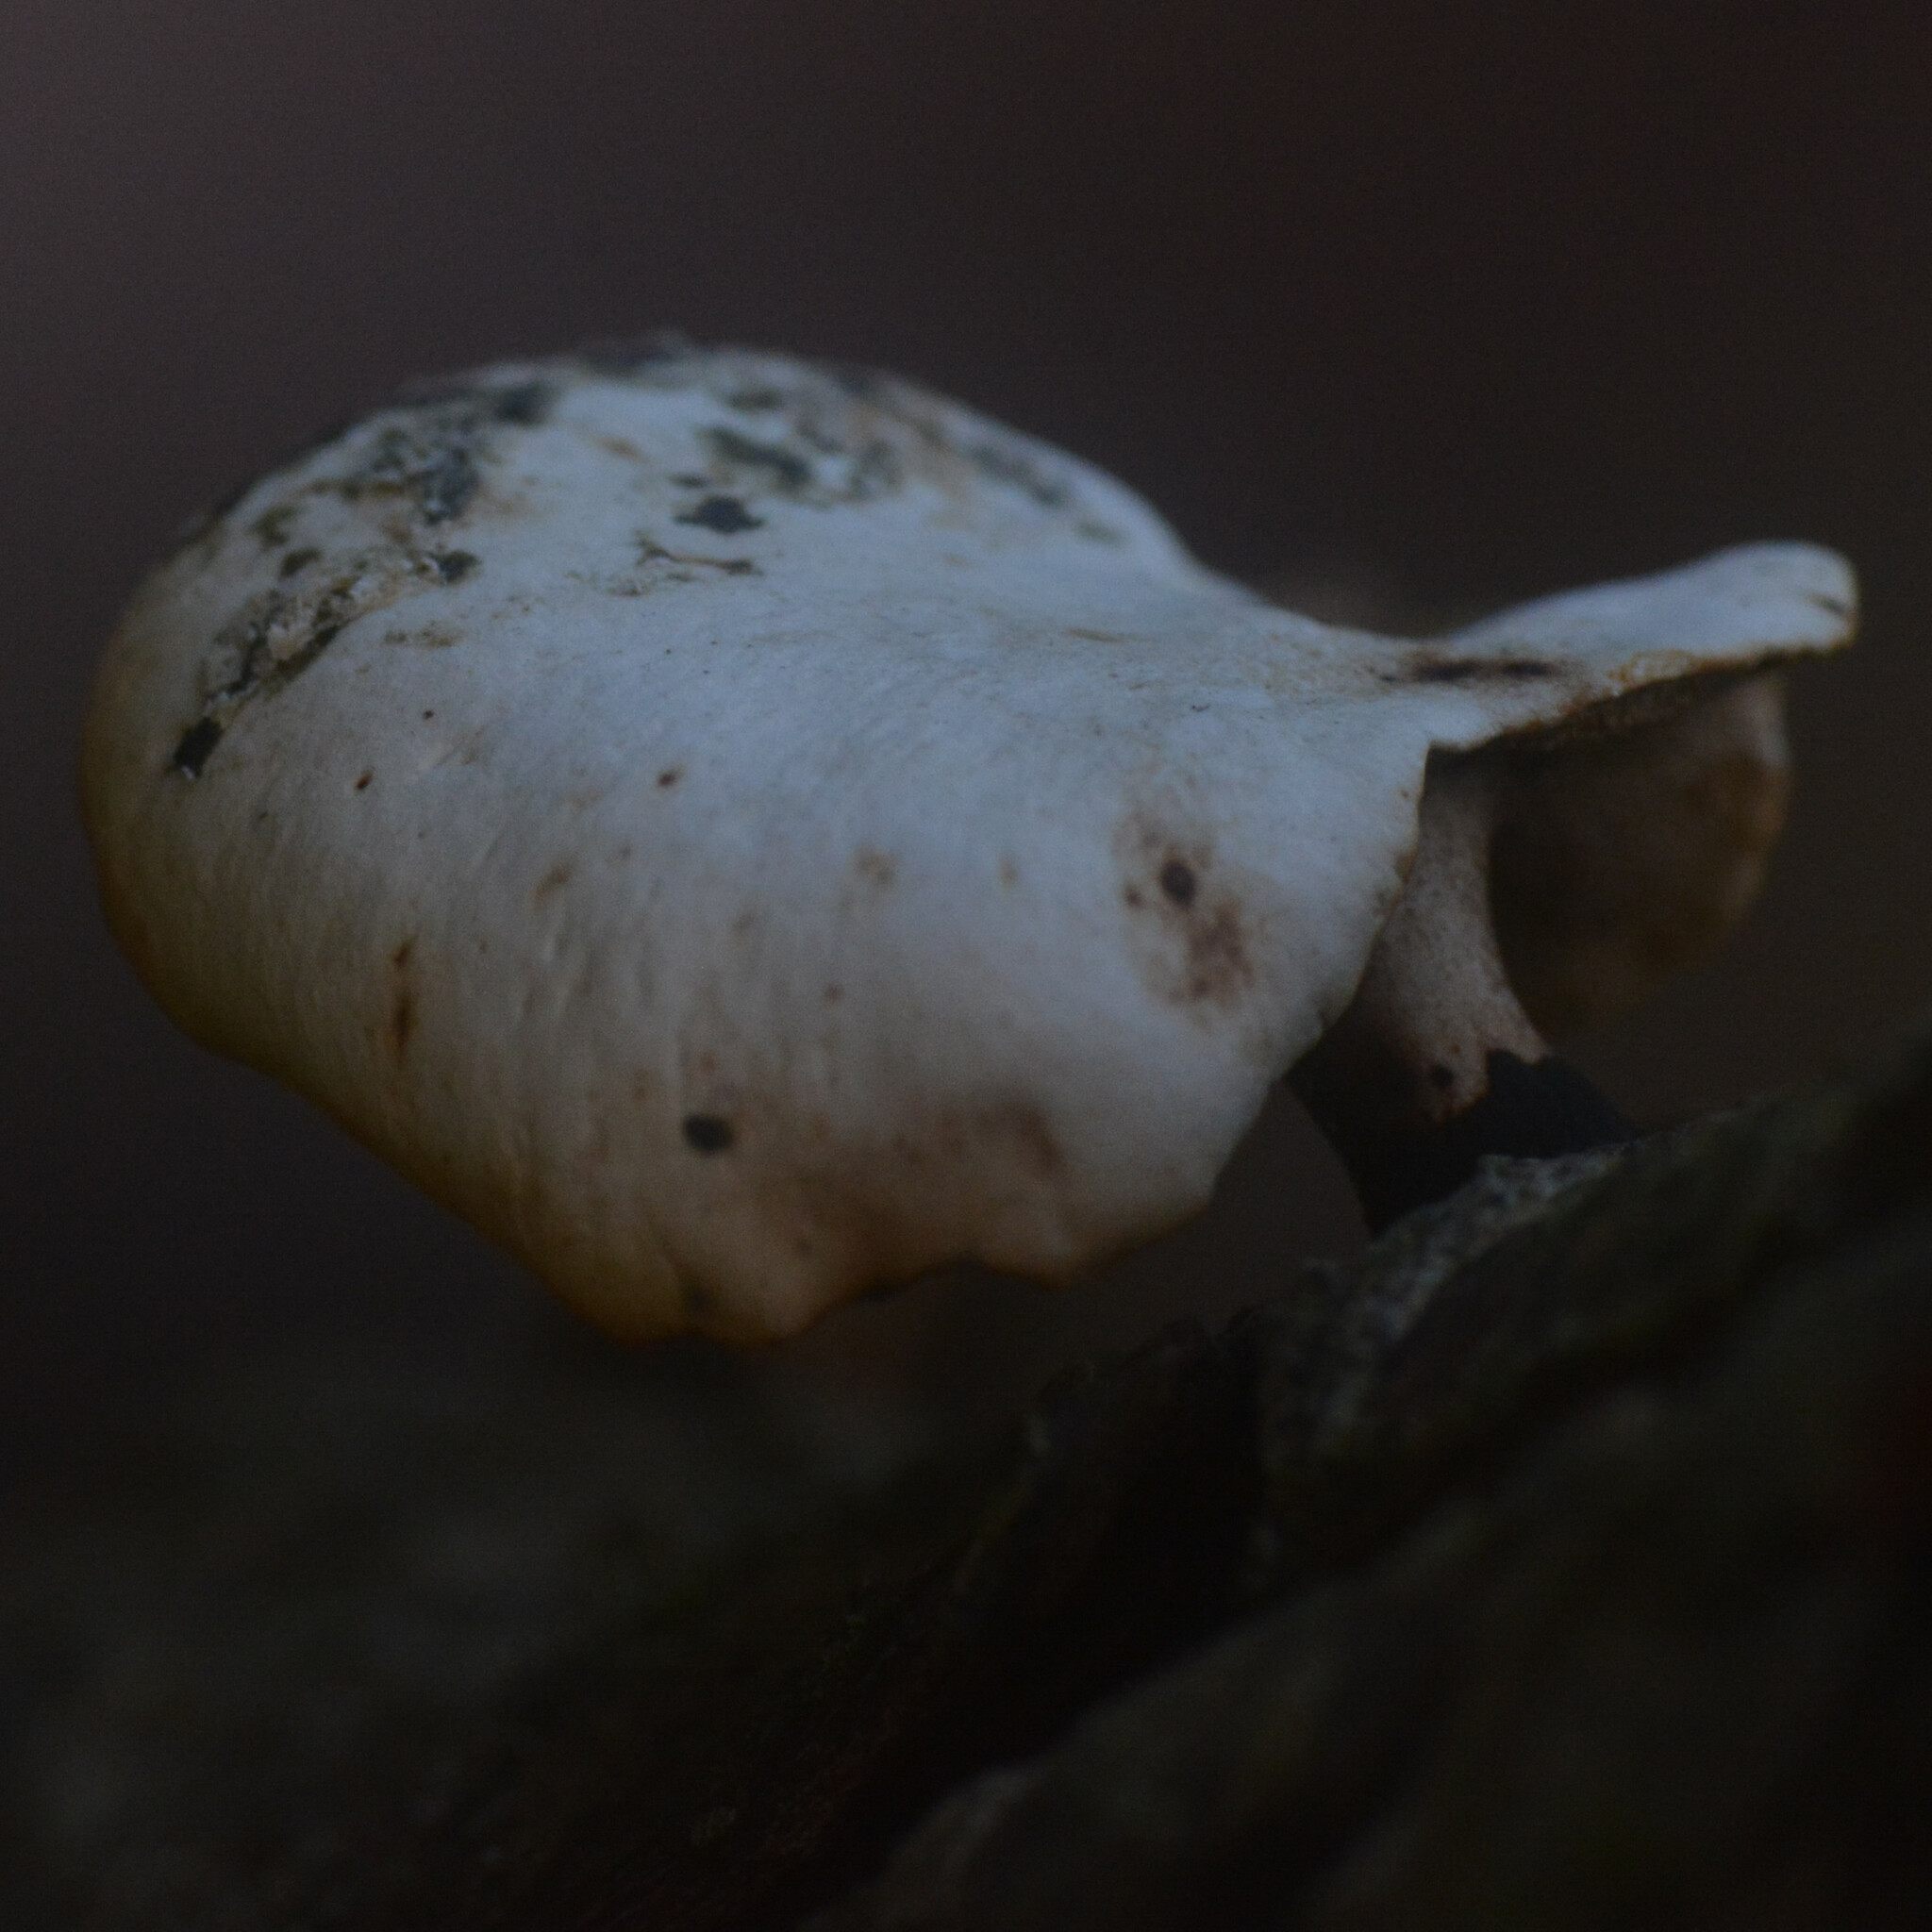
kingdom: Fungi
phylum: Basidiomycota
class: Agaricomycetes
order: Polyporales
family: Polyporaceae
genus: Cerioporus
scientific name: Cerioporus leptocephalus
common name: Blackfoot polypore
